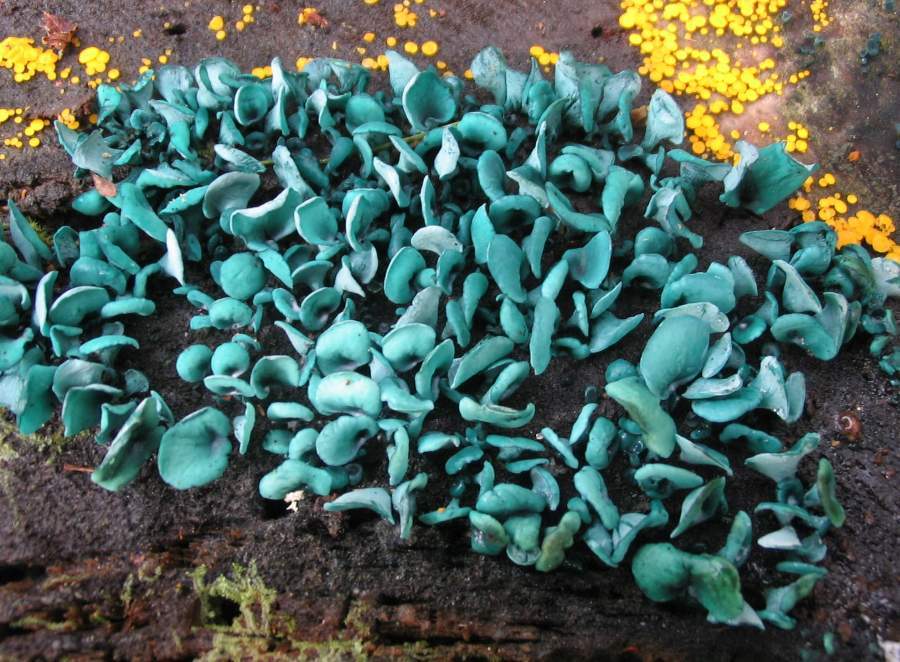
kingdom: Fungi
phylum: Ascomycota
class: Leotiomycetes
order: Helotiales
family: Chlorociboriaceae
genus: Chlorociboria
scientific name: Chlorociboria aeruginascens
